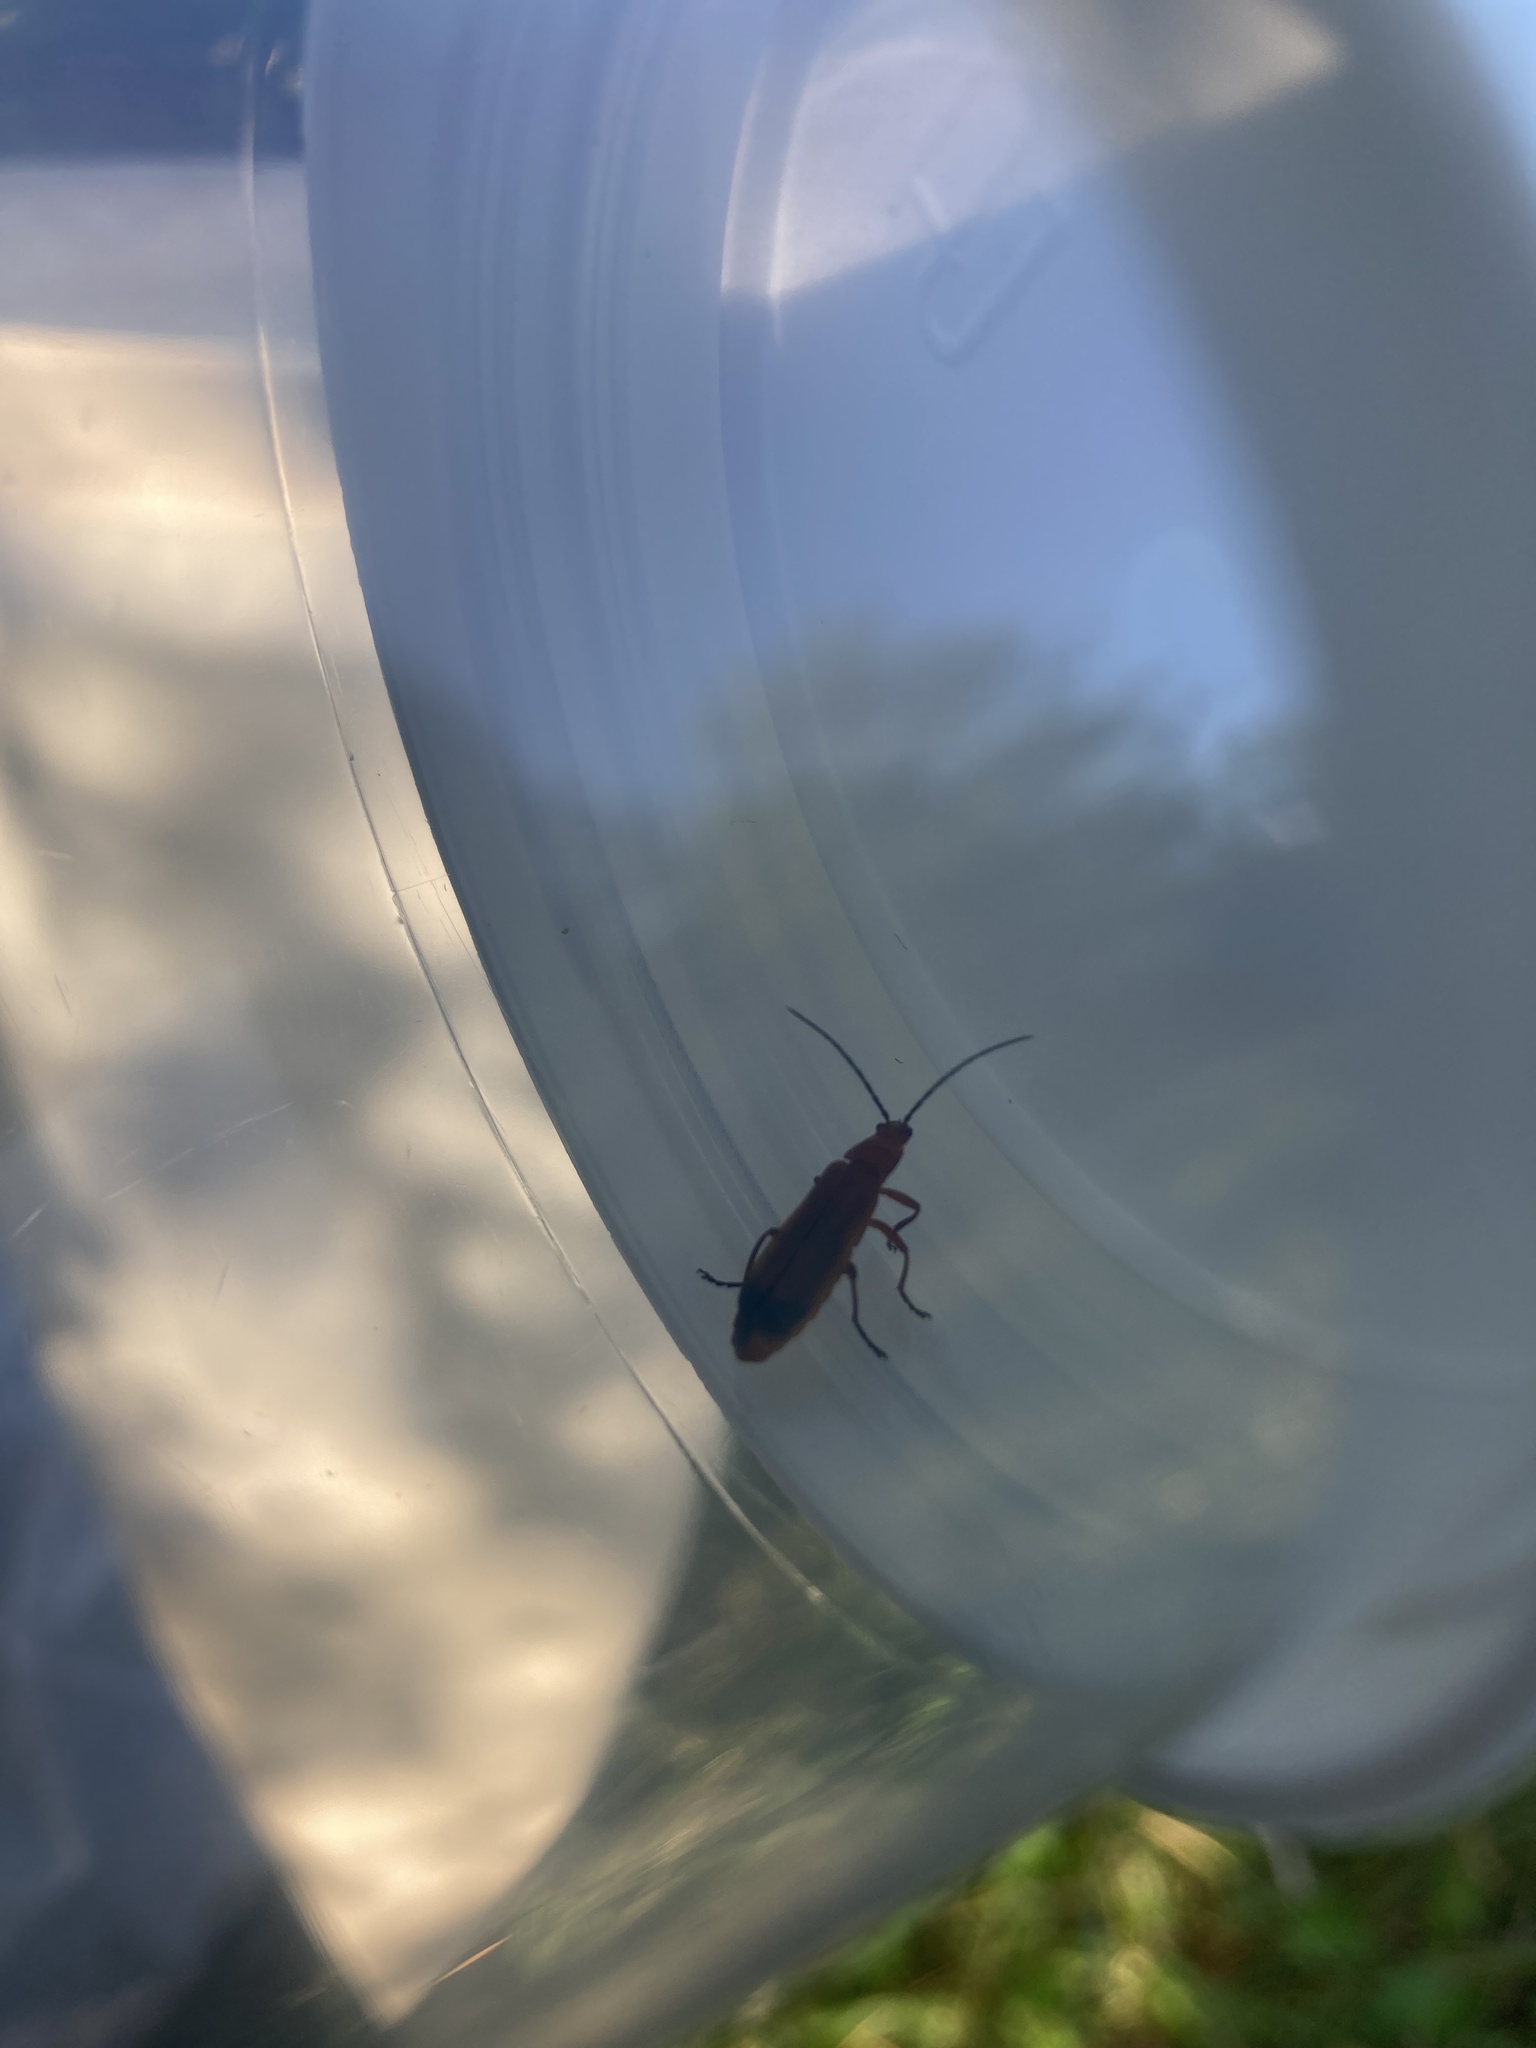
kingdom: Animalia
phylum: Arthropoda
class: Insecta
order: Coleoptera
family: Cantharidae
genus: Rhagonycha
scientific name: Rhagonycha fulva
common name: Common red soldier beetle
